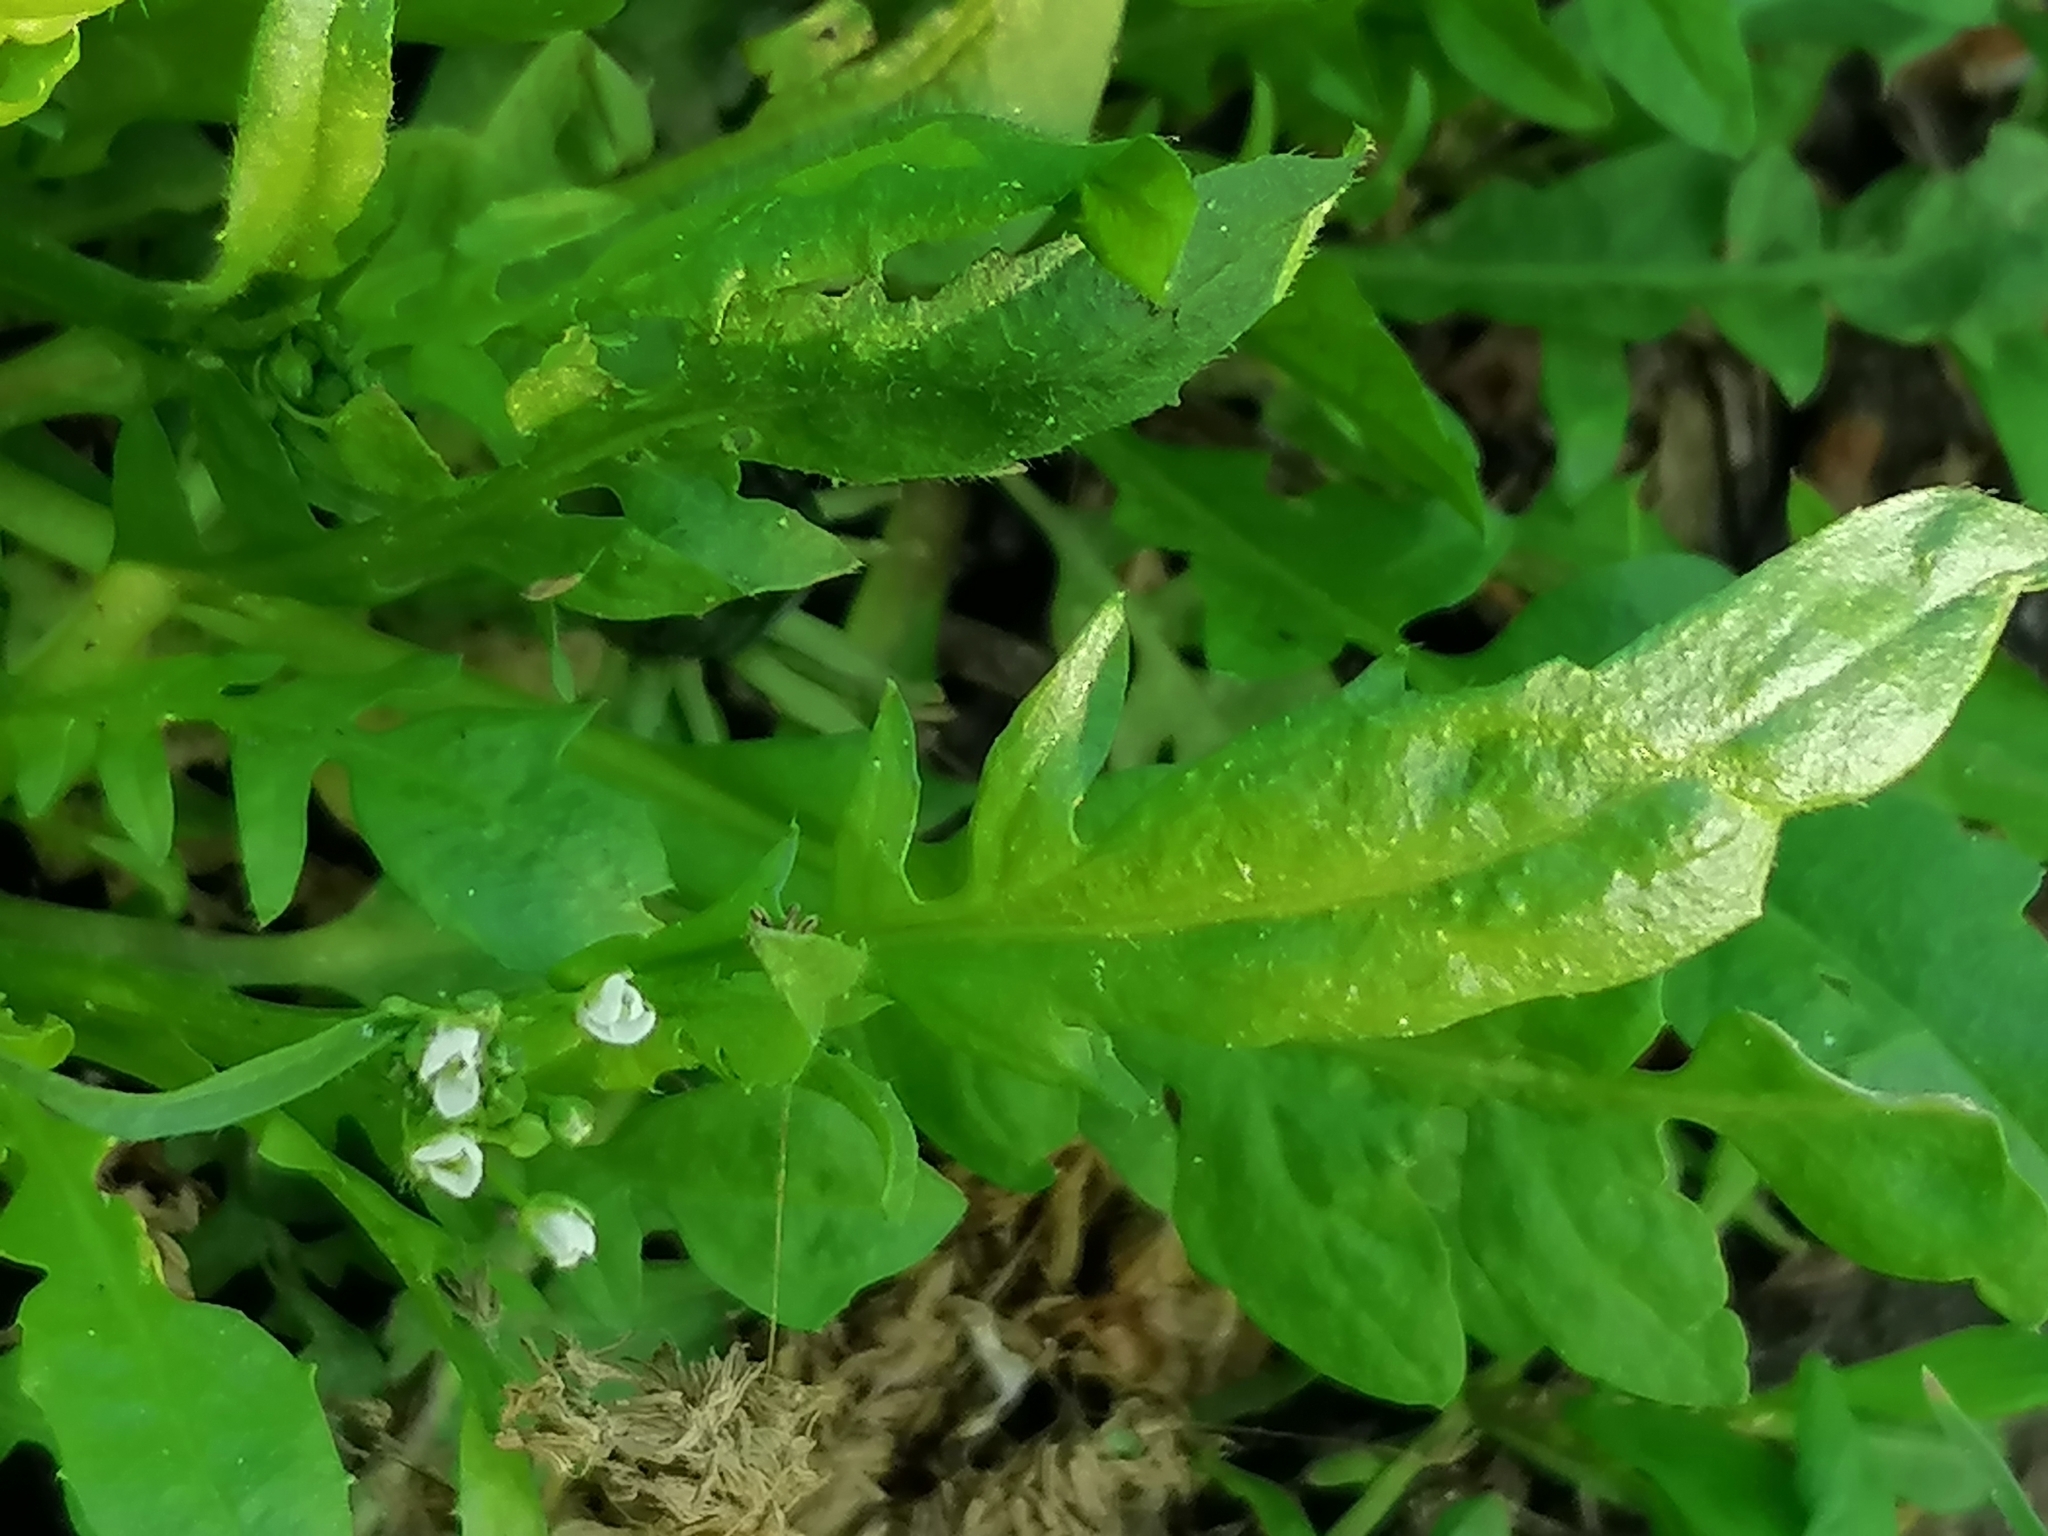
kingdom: Plantae
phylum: Tracheophyta
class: Magnoliopsida
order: Brassicales
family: Brassicaceae
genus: Capsella
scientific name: Capsella bursa-pastoris
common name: Shepherd's purse
